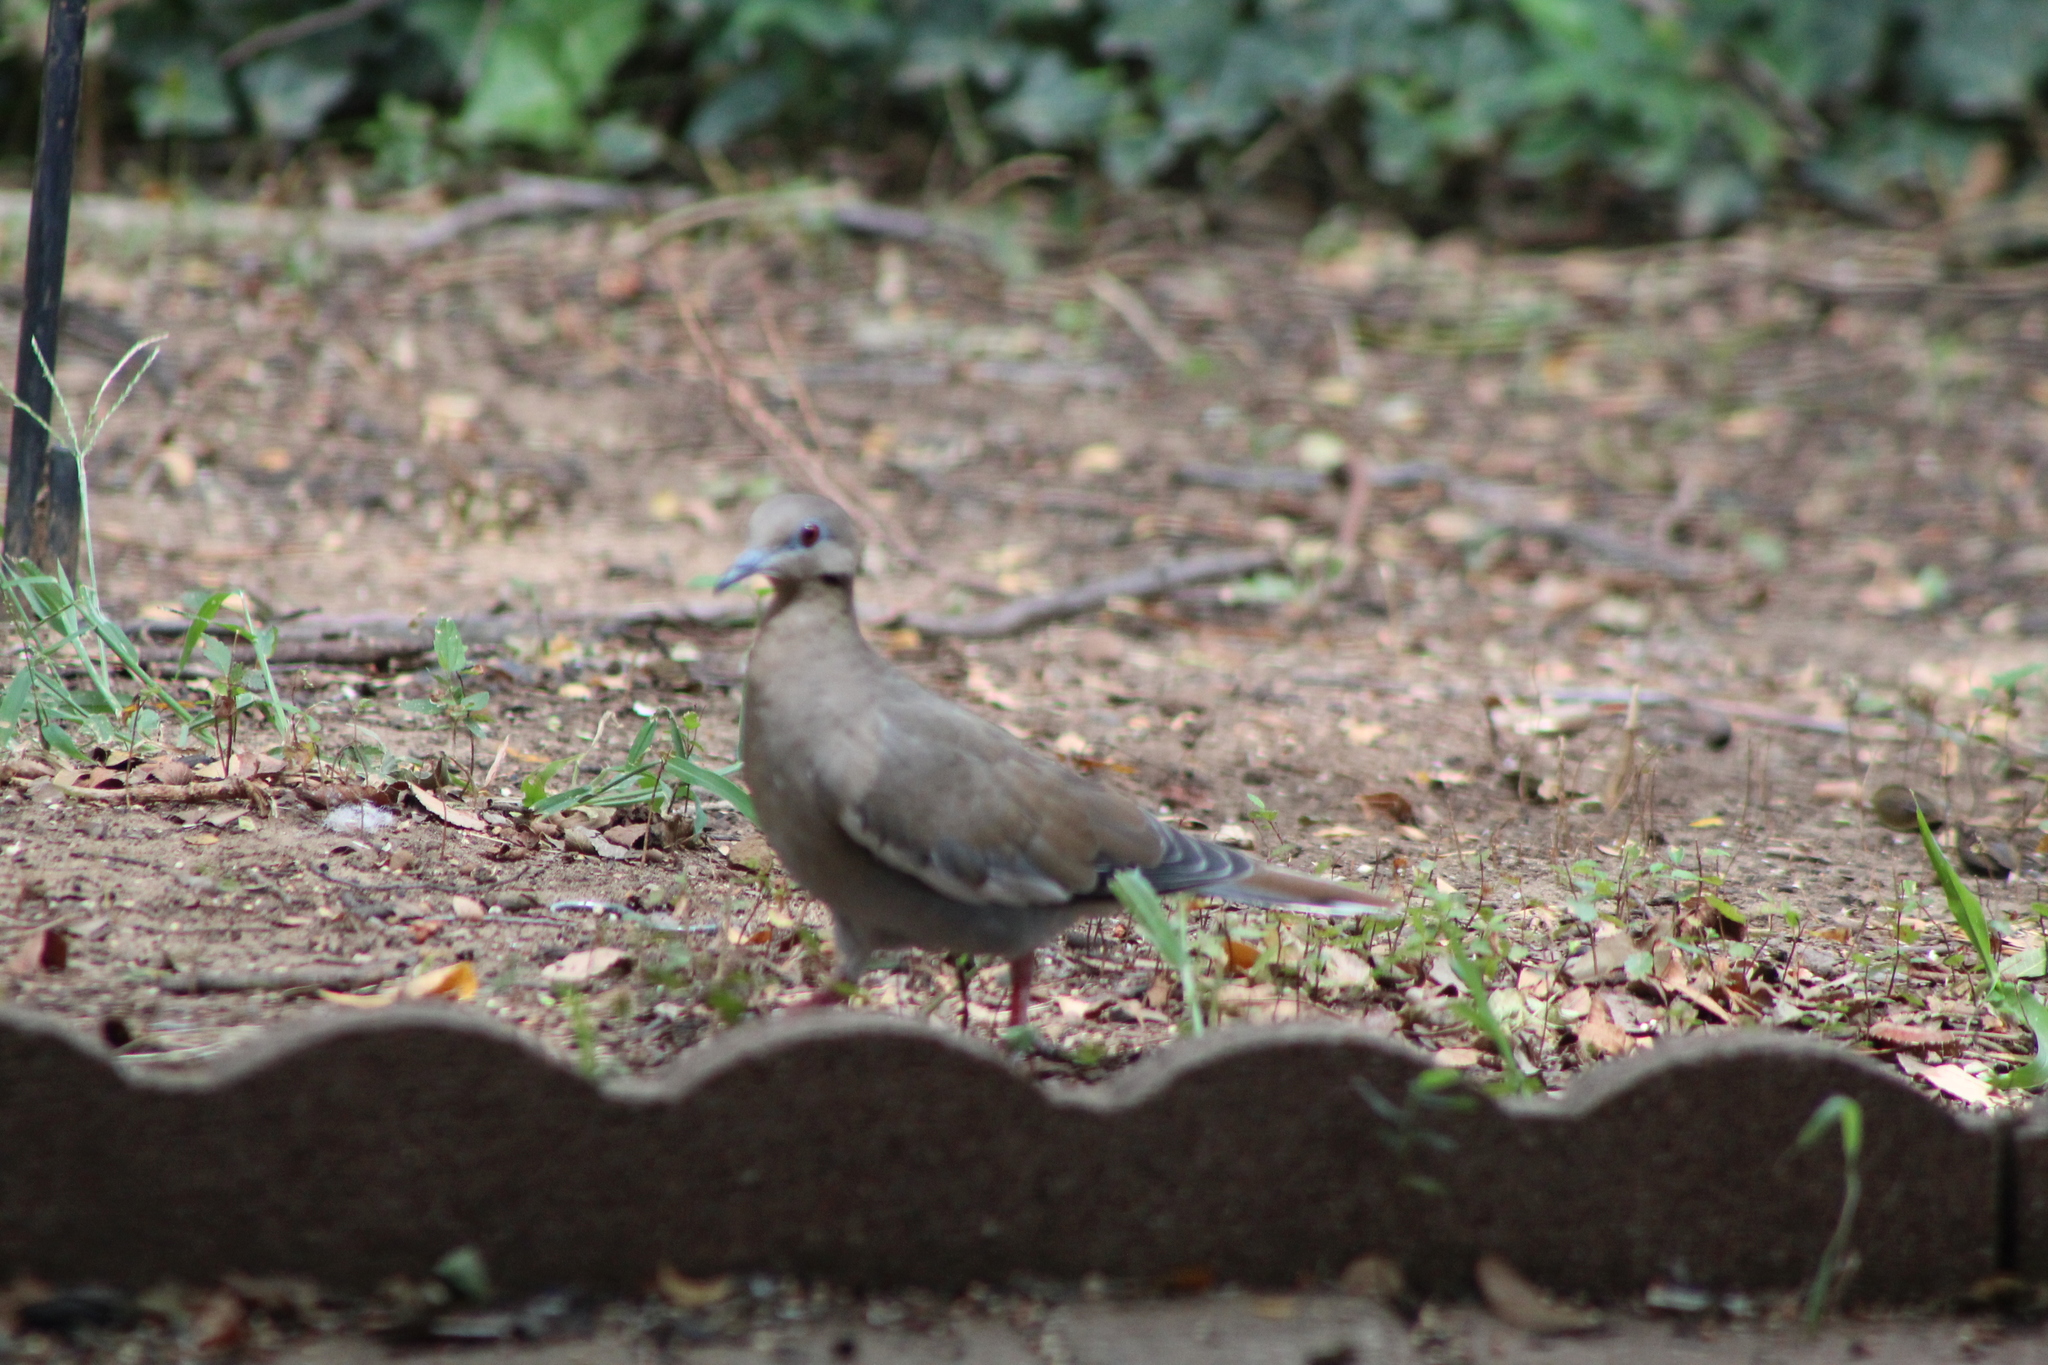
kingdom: Animalia
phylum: Chordata
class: Aves
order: Columbiformes
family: Columbidae
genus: Zenaida
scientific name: Zenaida asiatica
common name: White-winged dove
